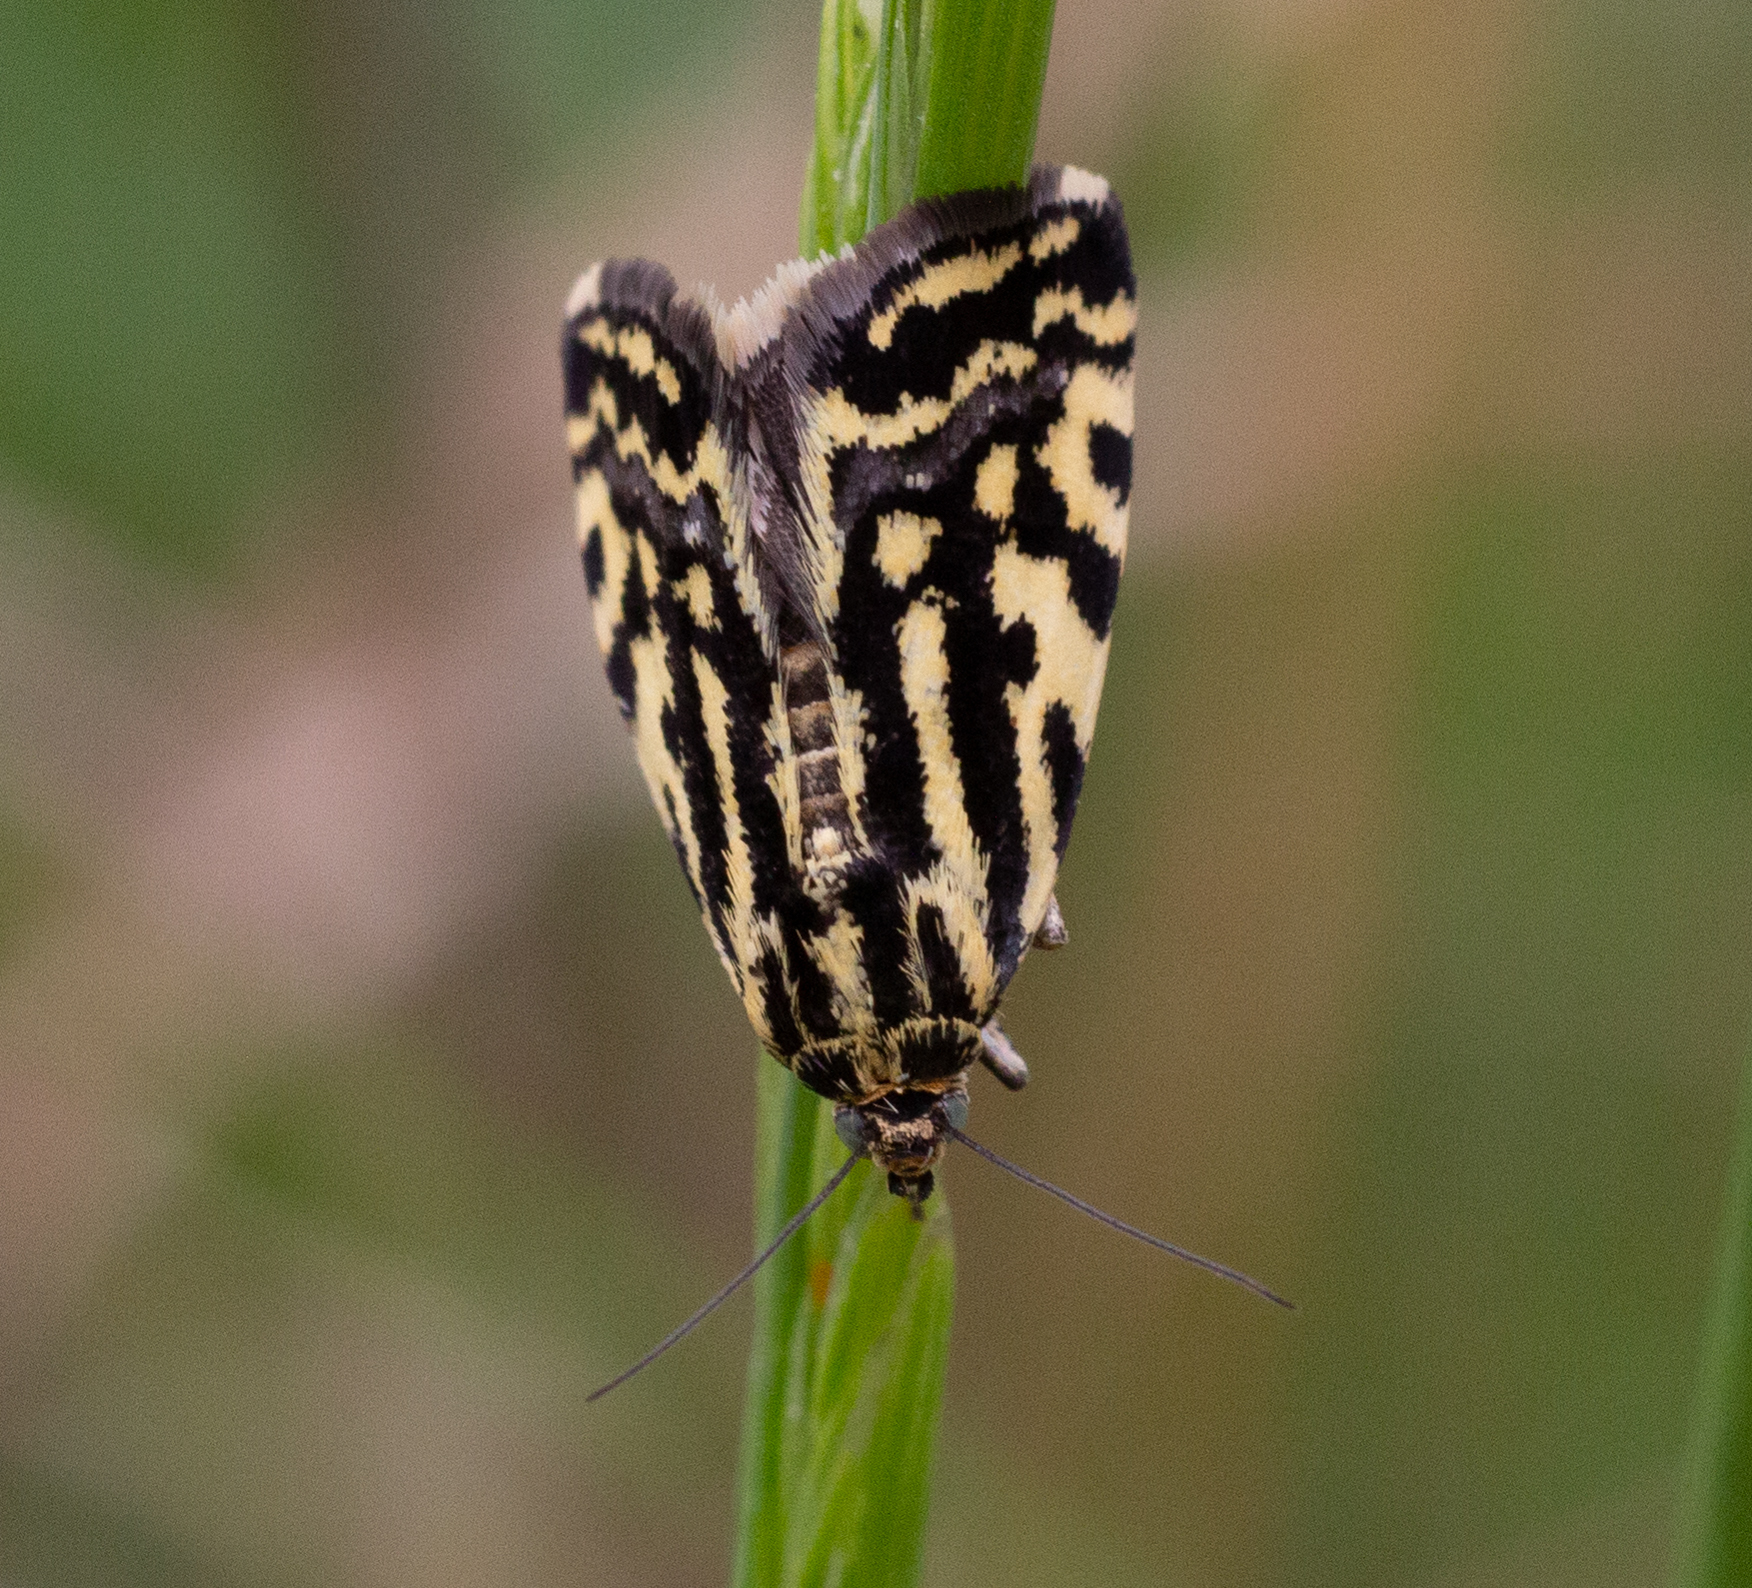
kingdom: Animalia
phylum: Arthropoda
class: Insecta
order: Lepidoptera
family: Noctuidae
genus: Acontia
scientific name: Acontia trabealis
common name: Spotted sulphur
